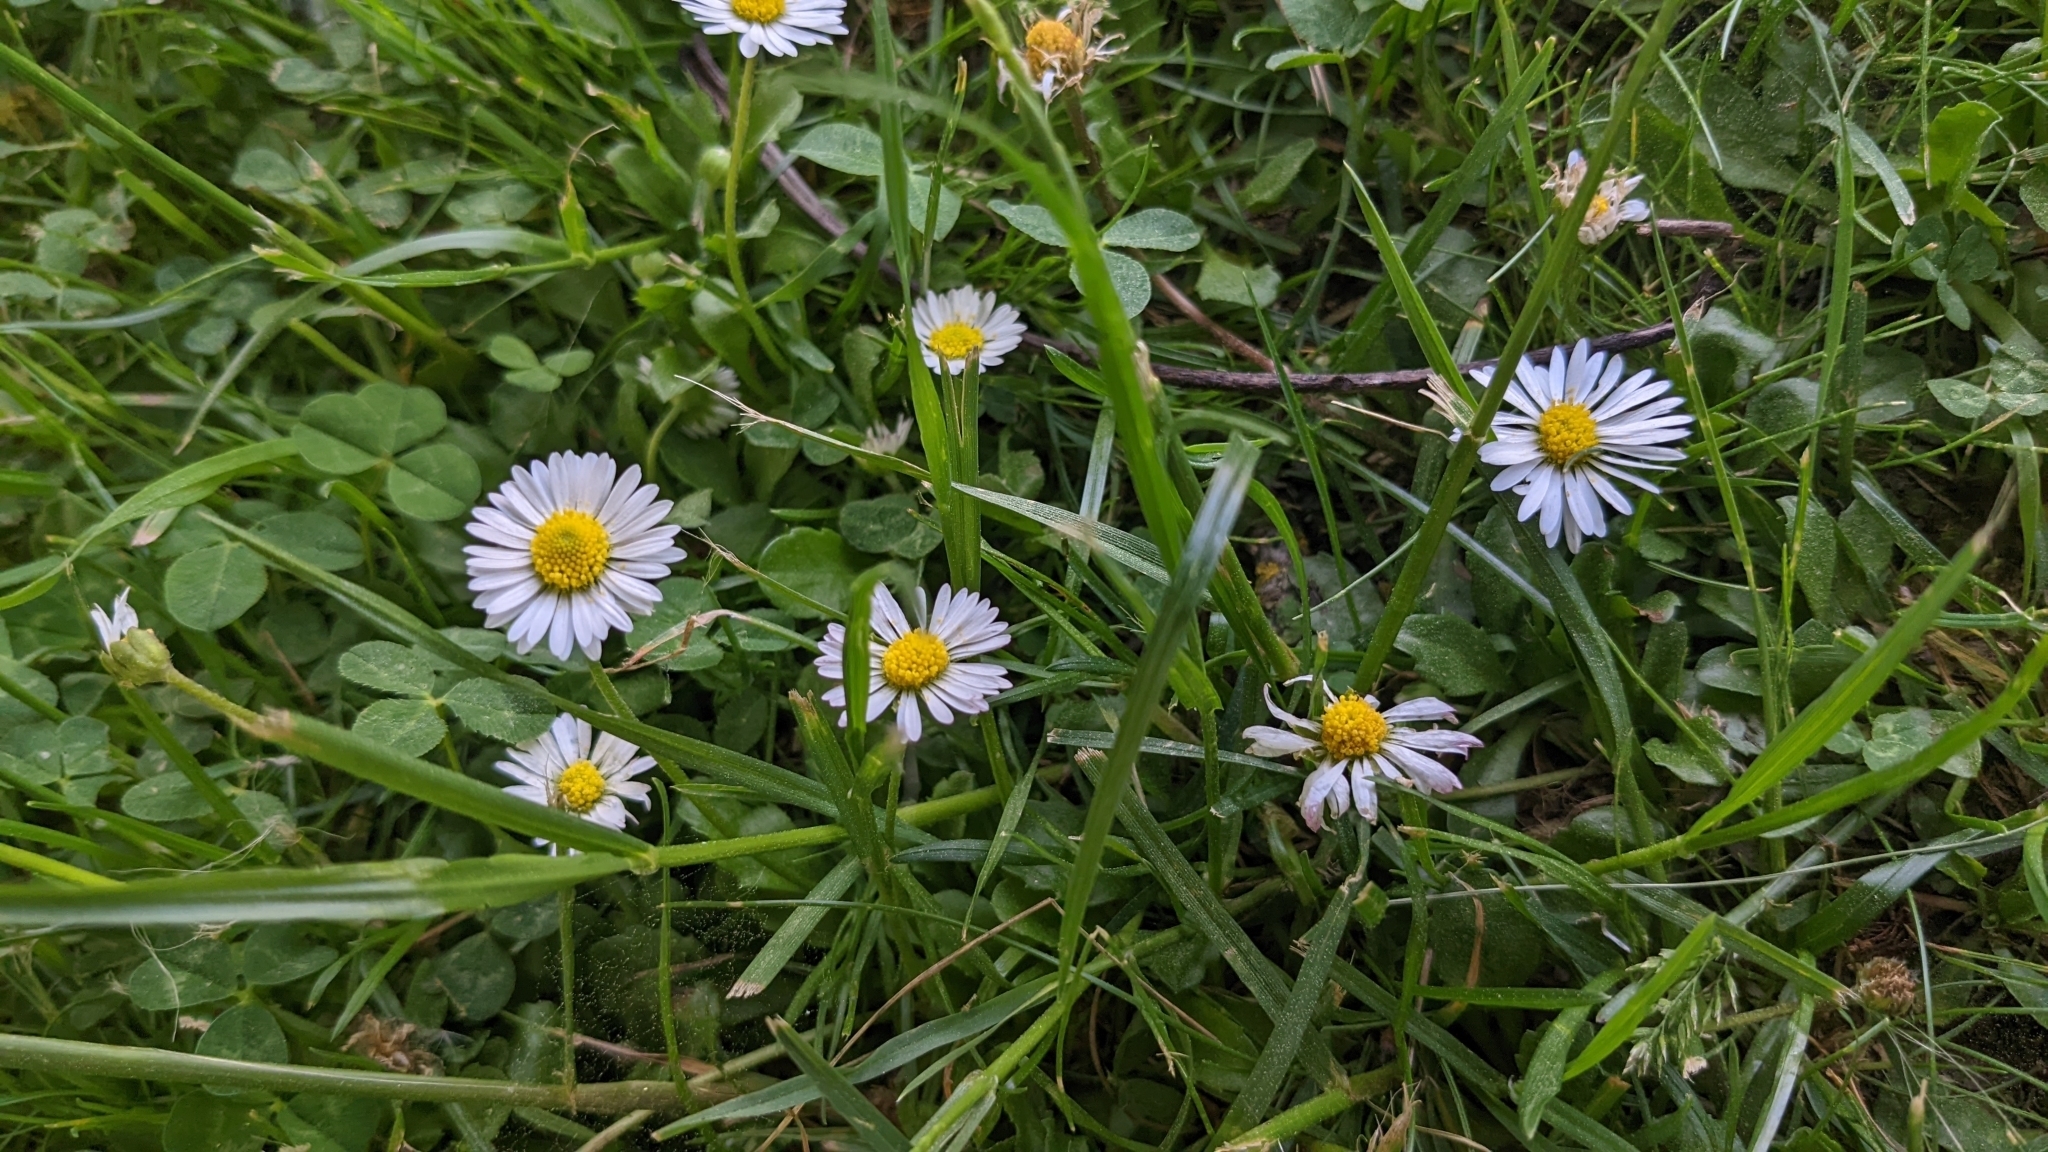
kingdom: Plantae
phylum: Tracheophyta
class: Magnoliopsida
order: Asterales
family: Asteraceae
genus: Bellis
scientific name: Bellis perennis
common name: Lawndaisy
